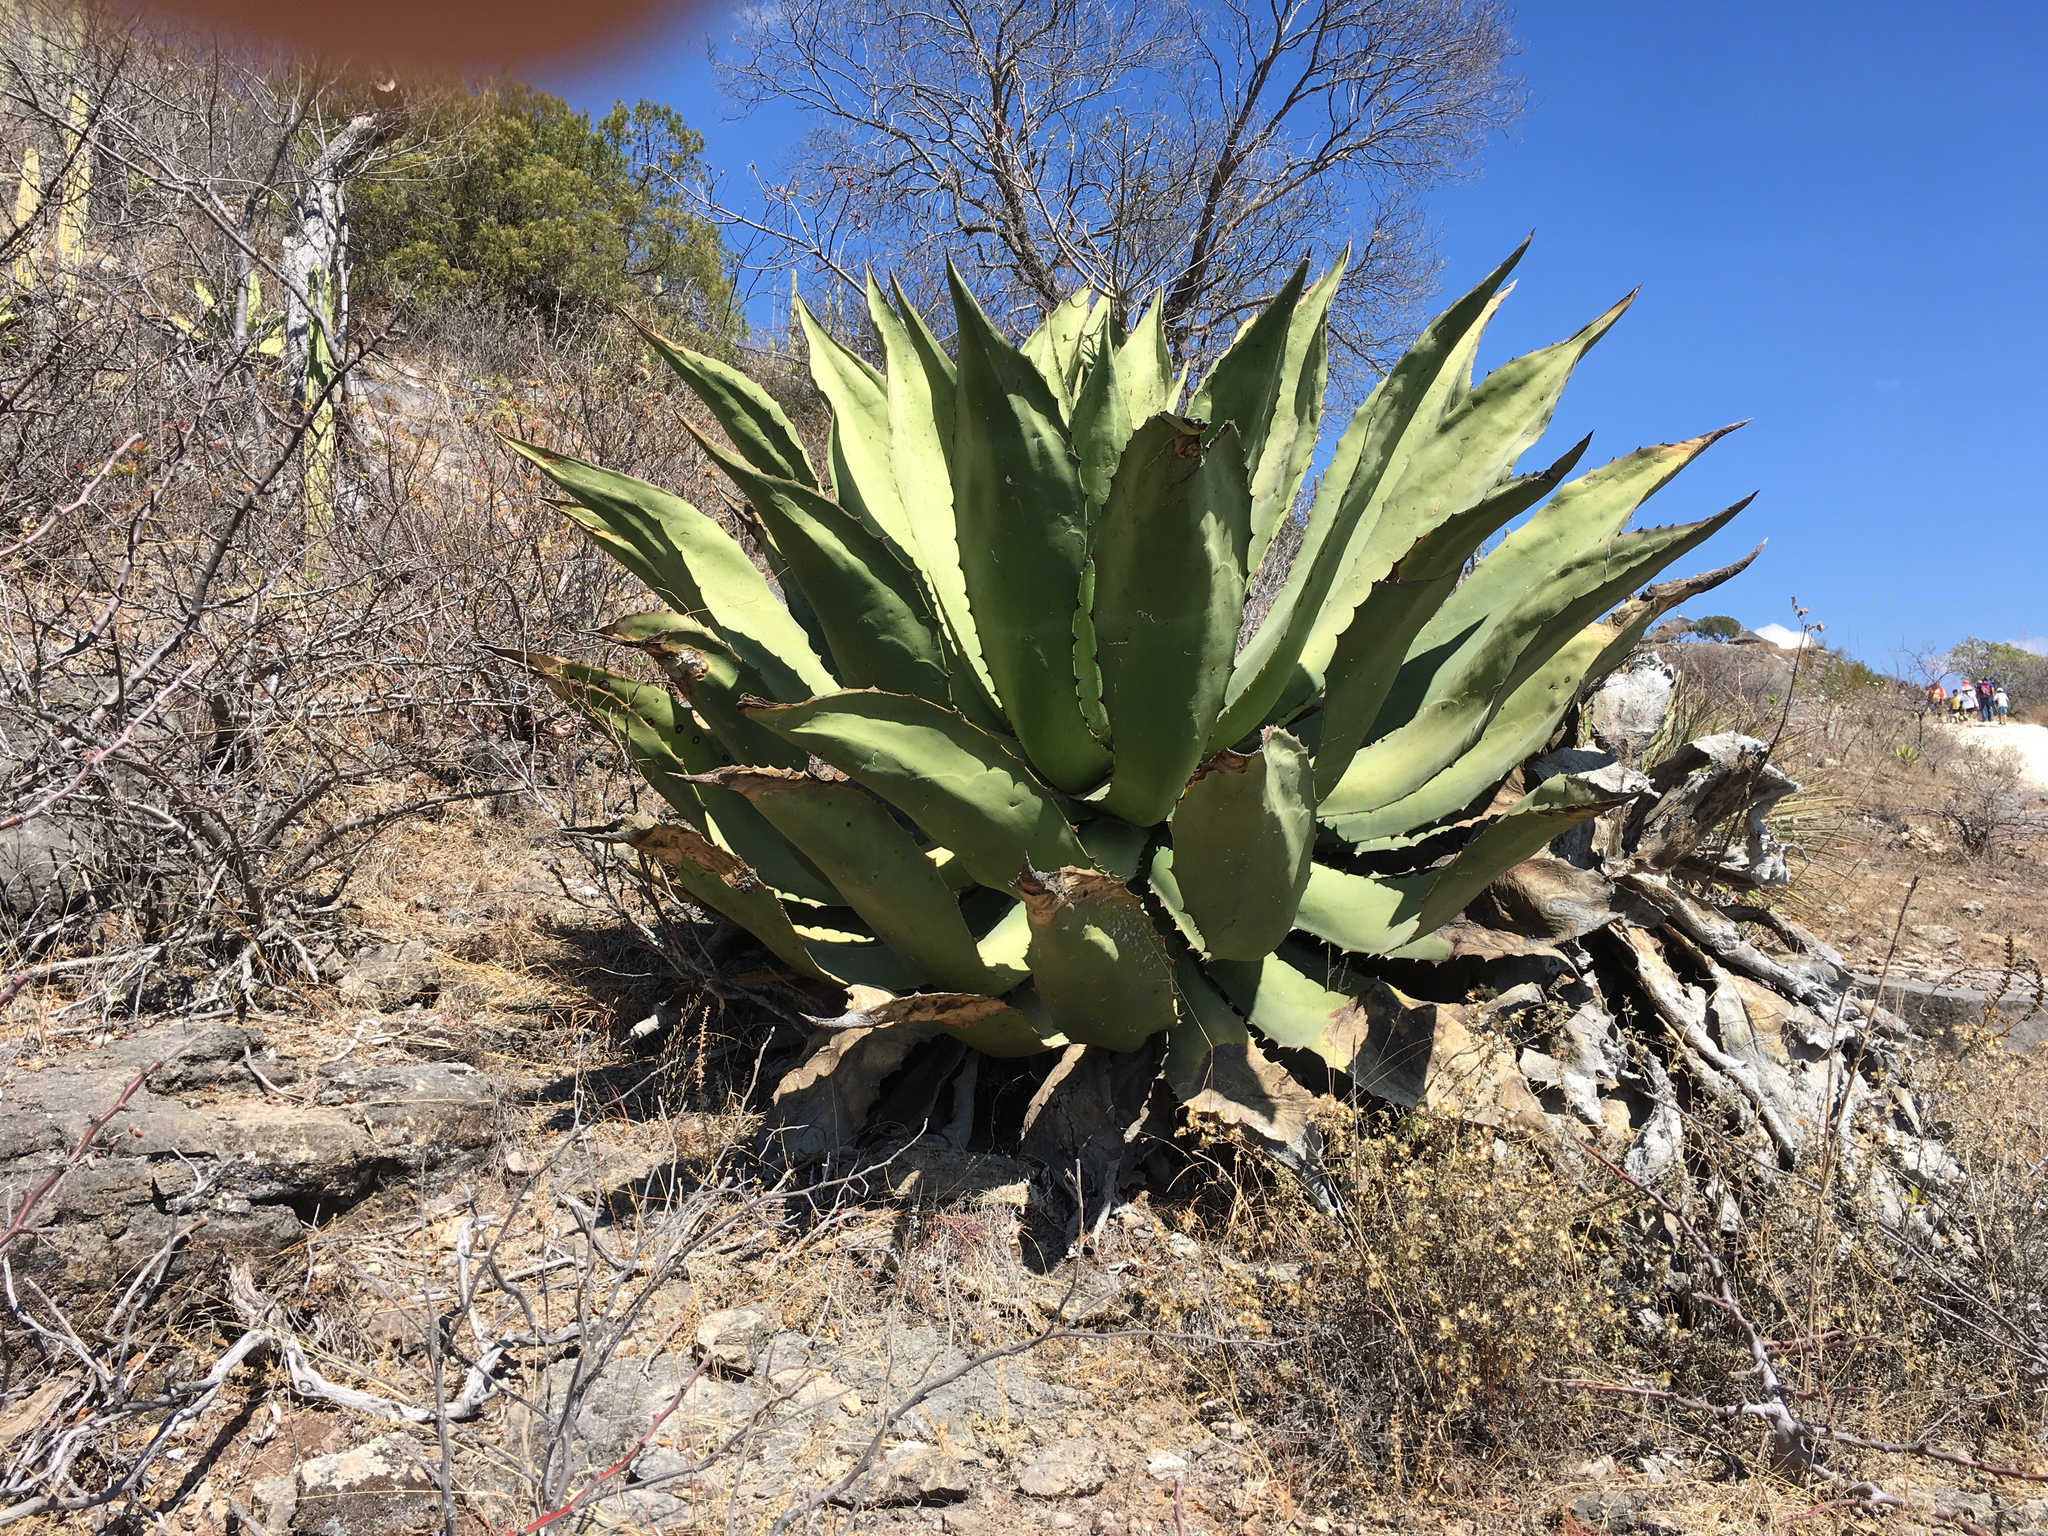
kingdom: Plantae
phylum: Tracheophyta
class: Liliopsida
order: Asparagales
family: Asparagaceae
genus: Agave
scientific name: Agave marmorata
